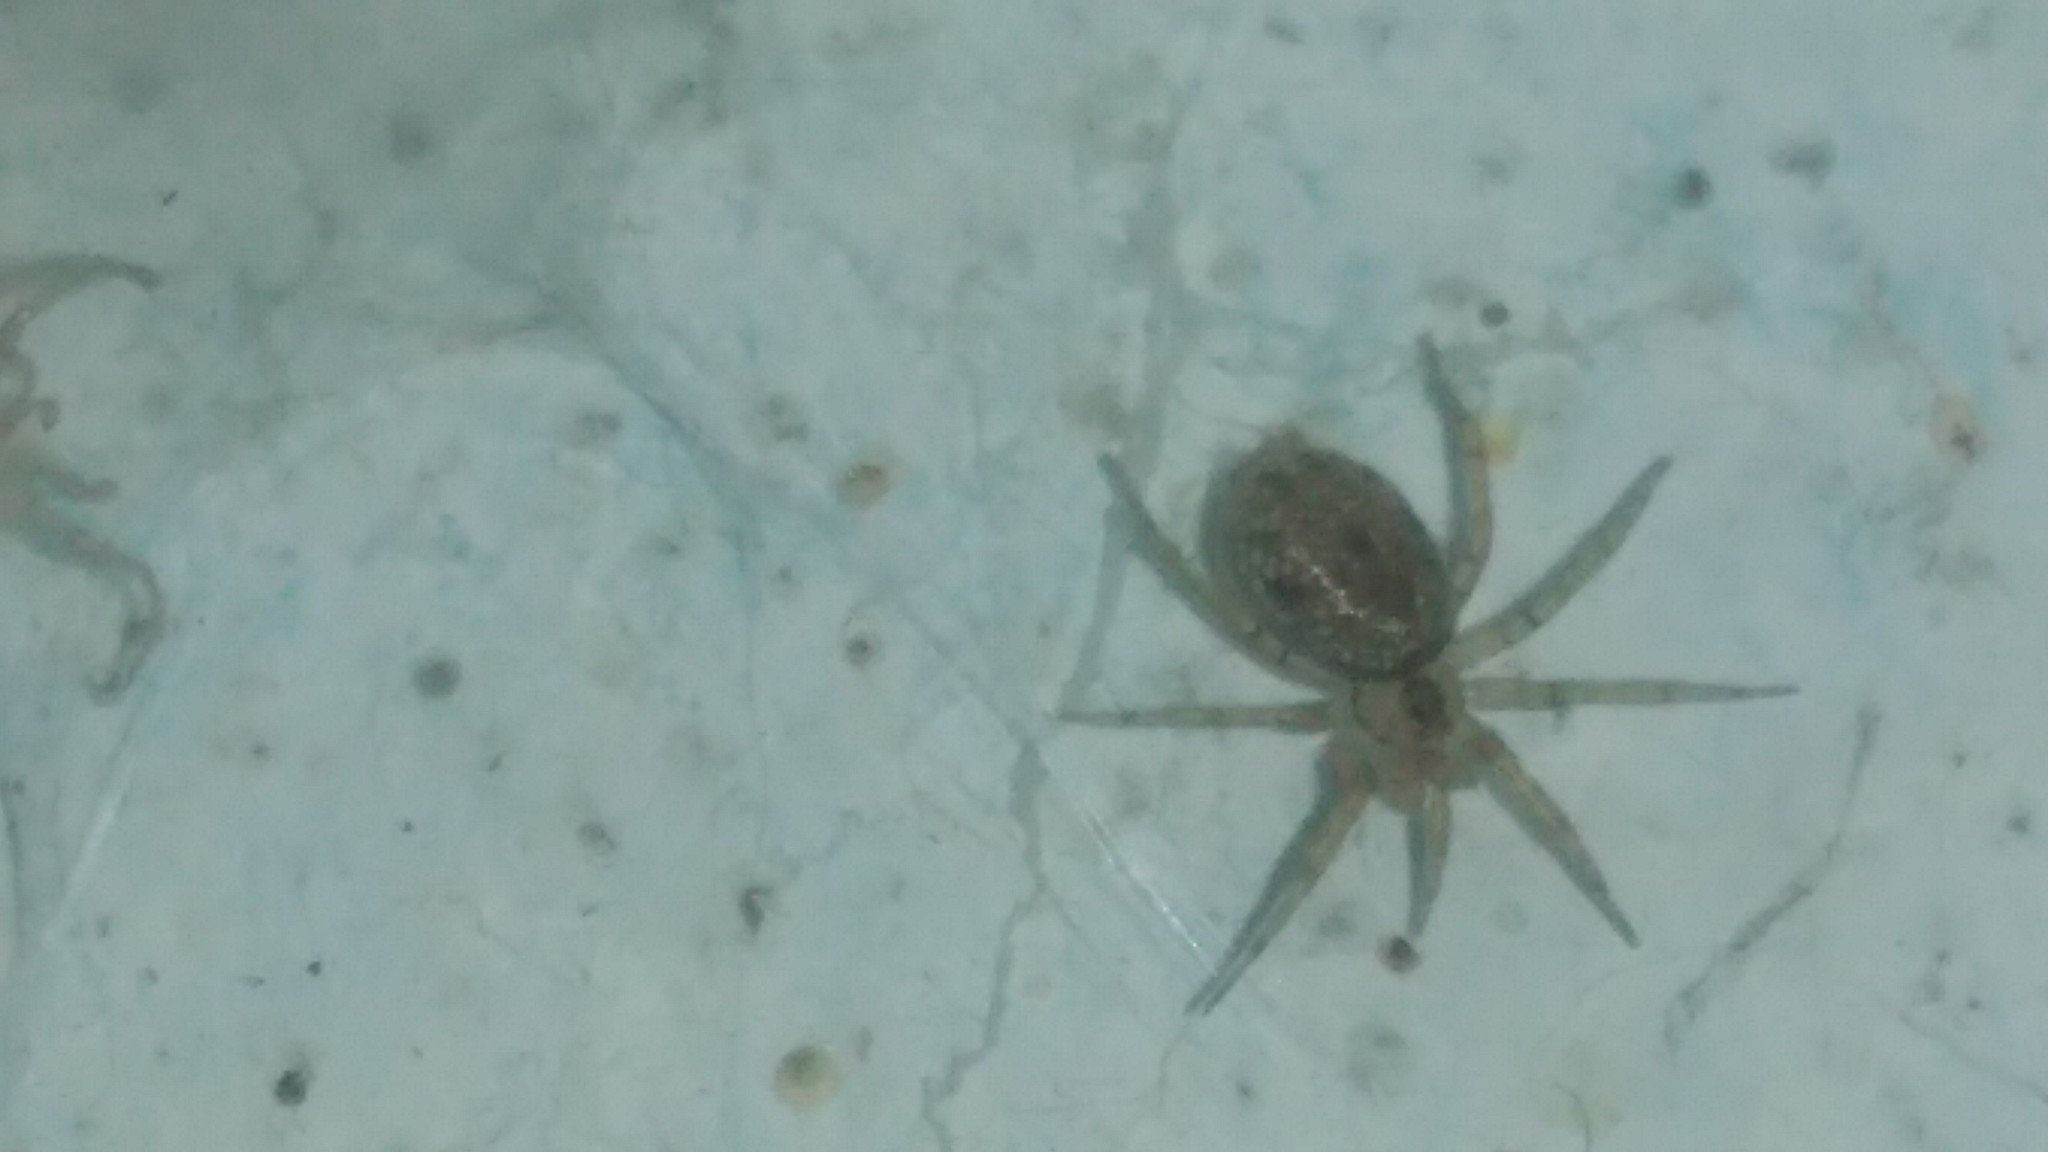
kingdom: Animalia
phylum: Arthropoda
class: Arachnida
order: Araneae
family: Oecobiidae
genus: Oecobius
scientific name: Oecobius navus
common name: Flatmesh weaver
